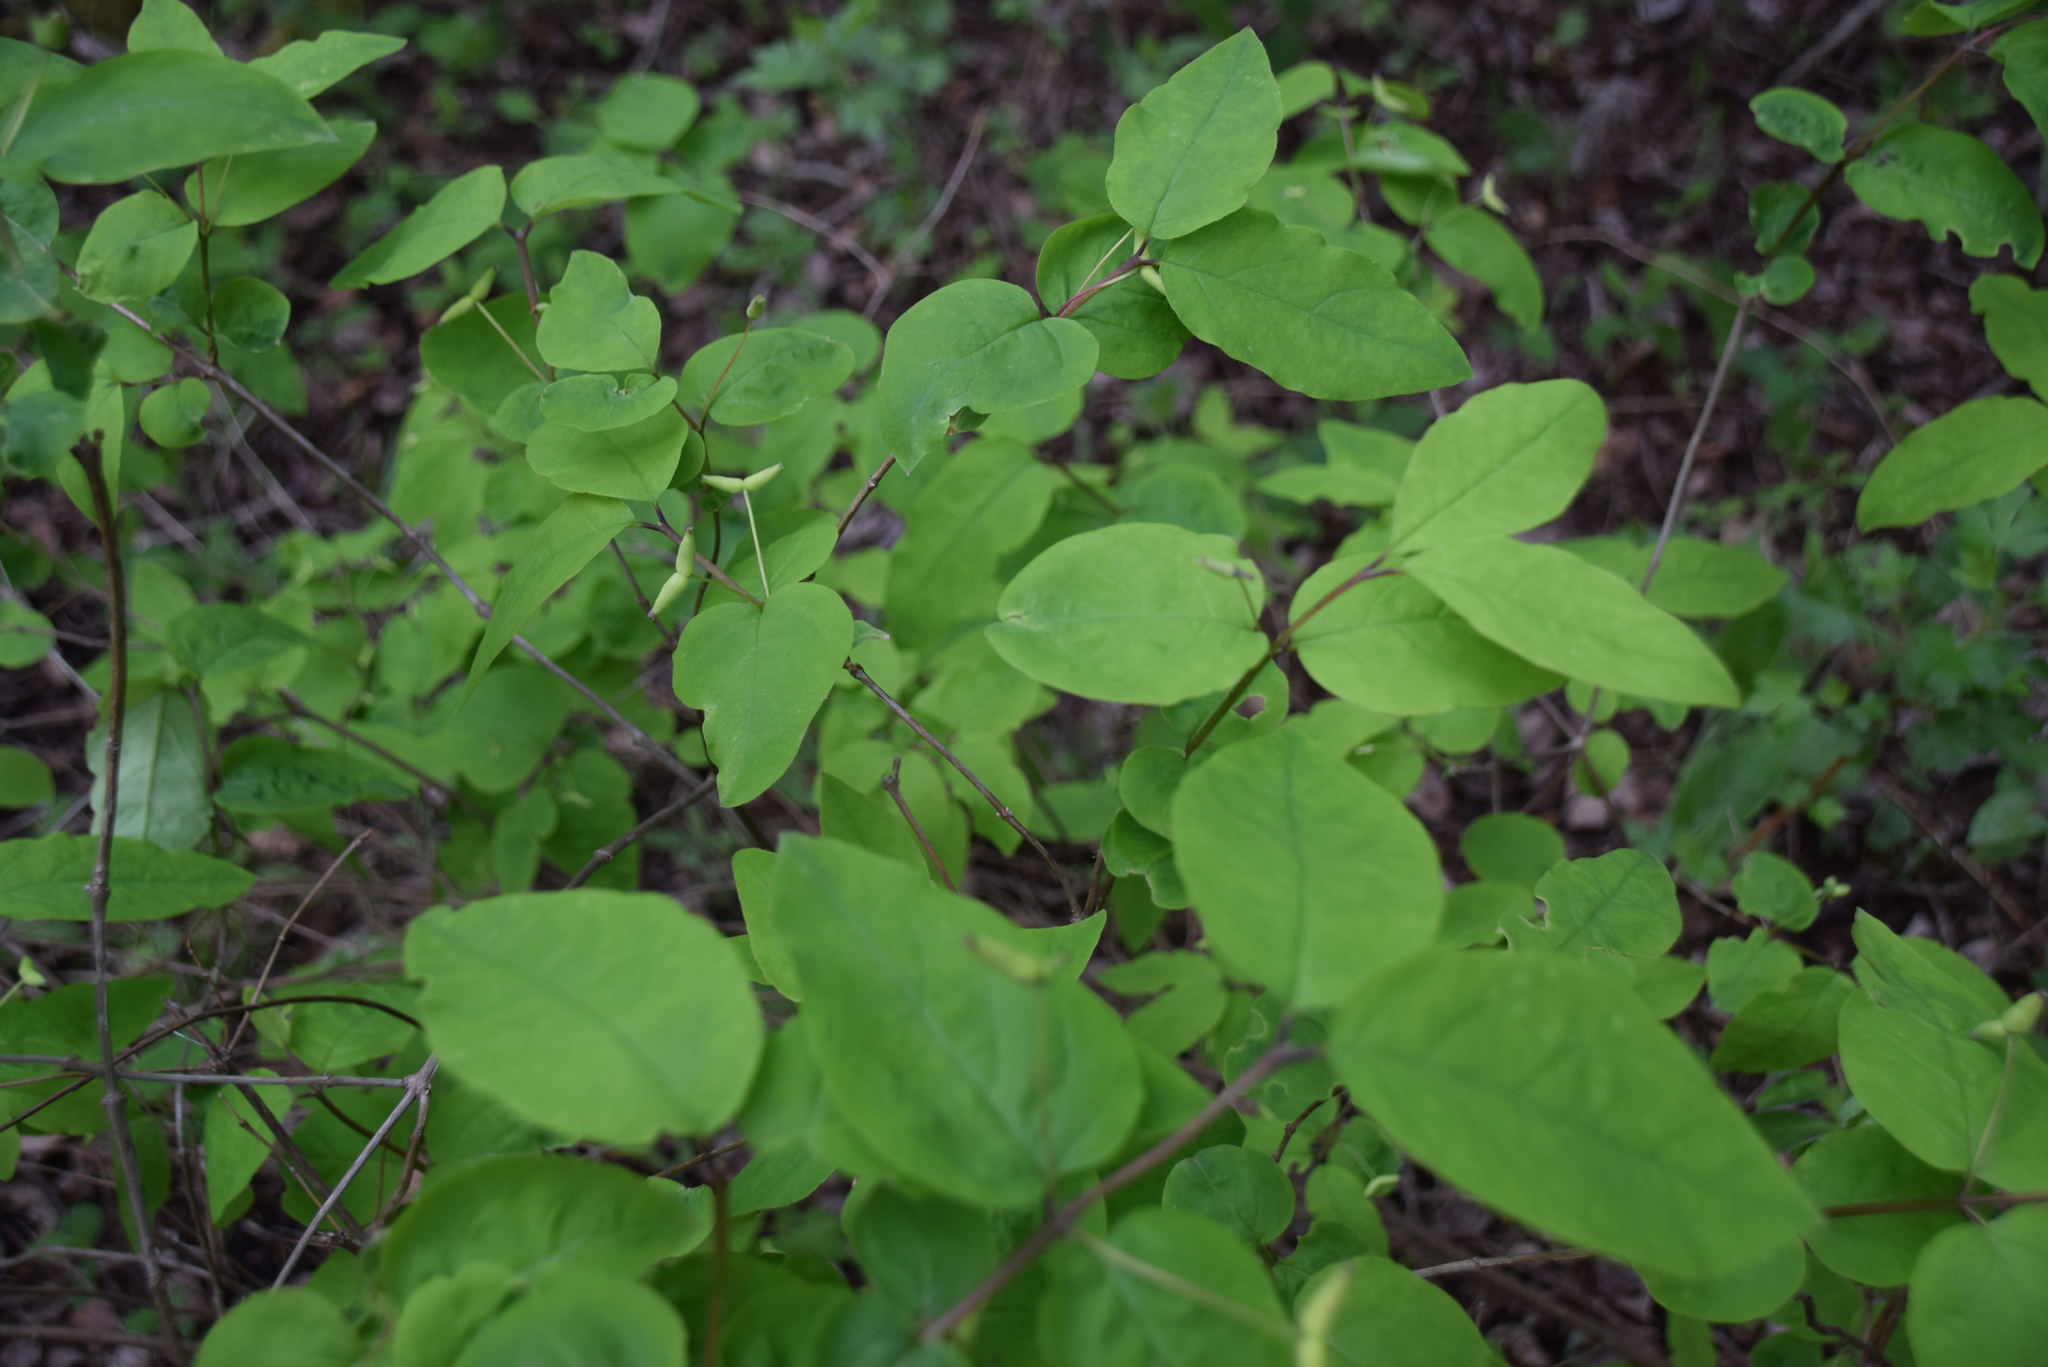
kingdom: Plantae
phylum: Tracheophyta
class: Magnoliopsida
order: Dipsacales
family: Caprifoliaceae
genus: Lonicera
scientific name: Lonicera canadensis
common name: American fly-honeysuckle
